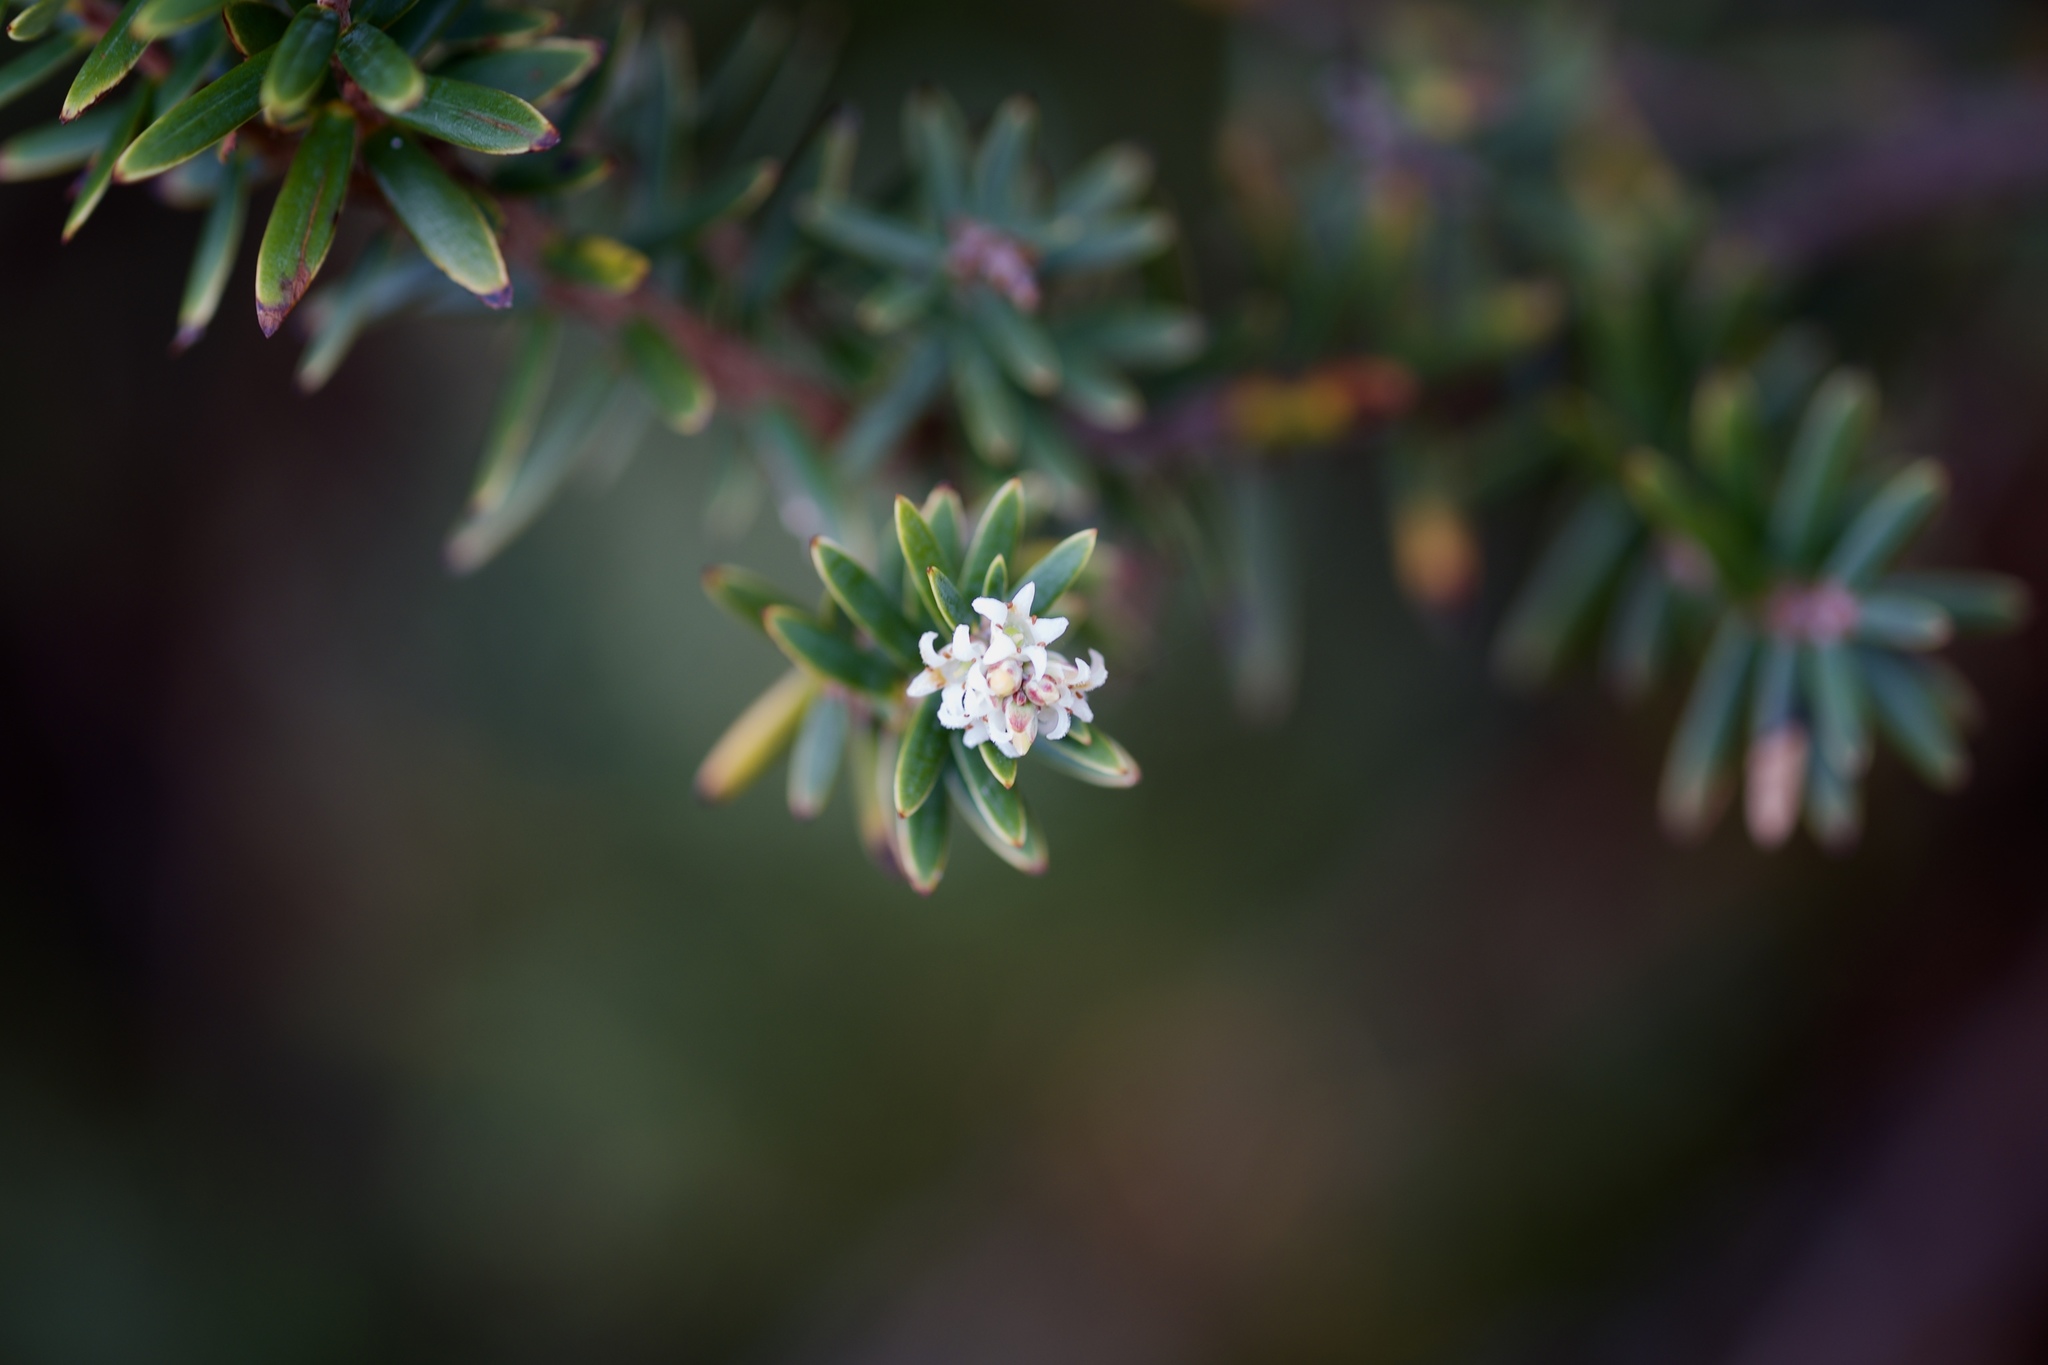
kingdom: Plantae
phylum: Tracheophyta
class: Magnoliopsida
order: Ericales
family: Ericaceae
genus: Acrothamnus
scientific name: Acrothamnus suaveolens
